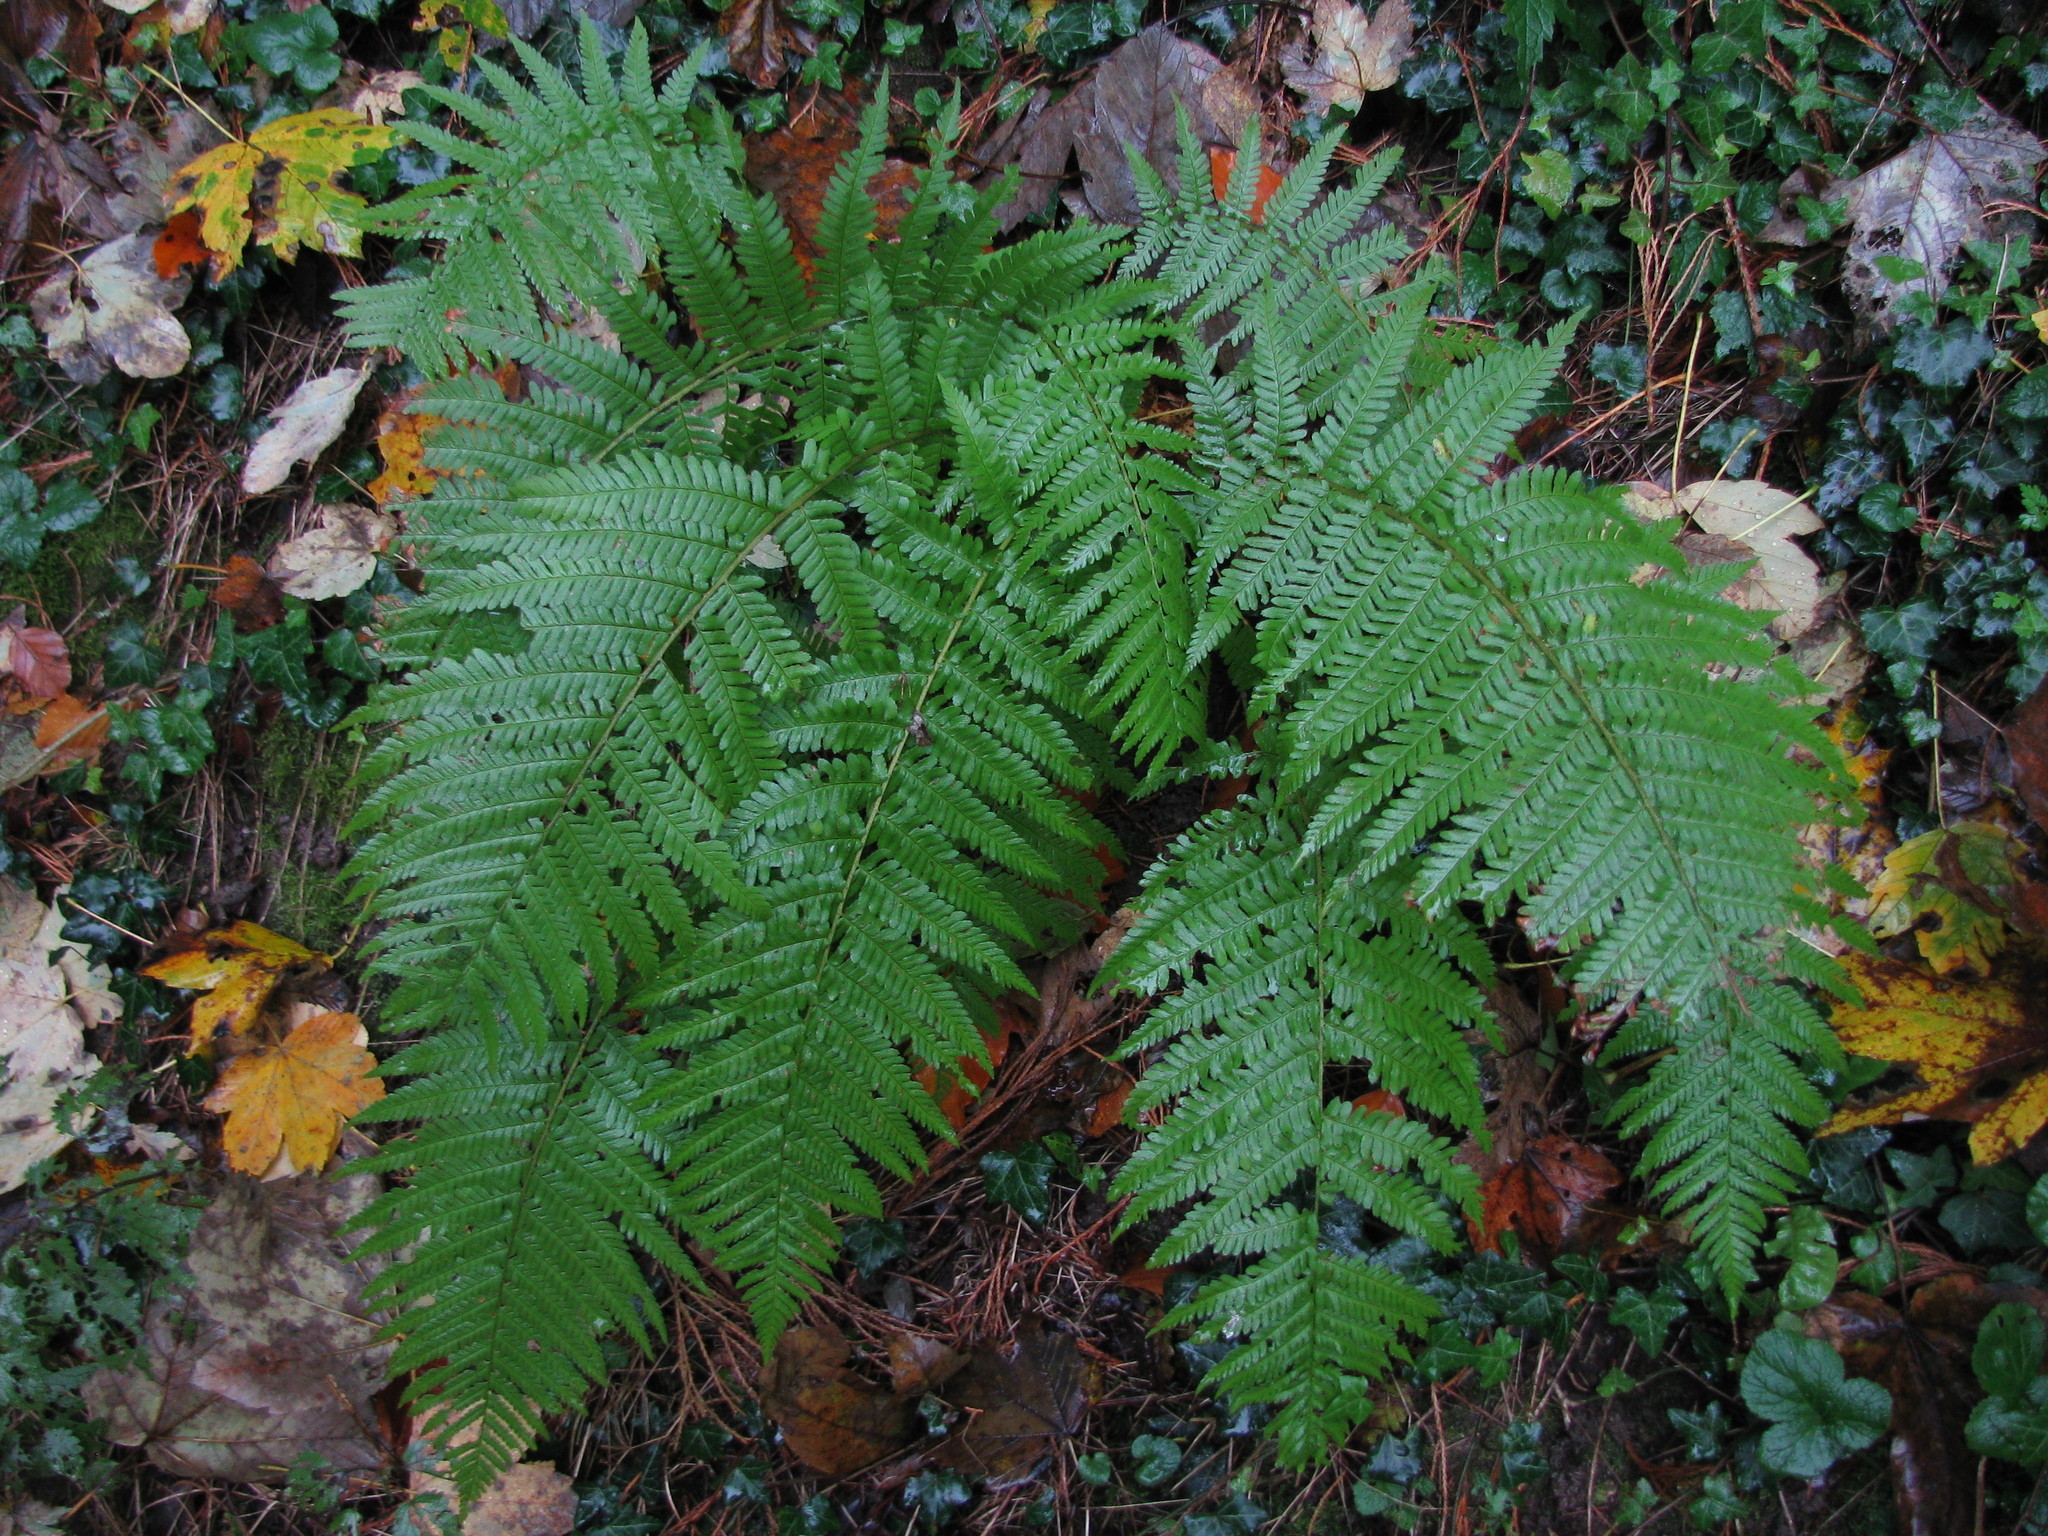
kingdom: Plantae
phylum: Tracheophyta
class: Polypodiopsida
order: Polypodiales
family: Dryopteridaceae
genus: Dryopteris
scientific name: Dryopteris filix-mas
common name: Male fern
